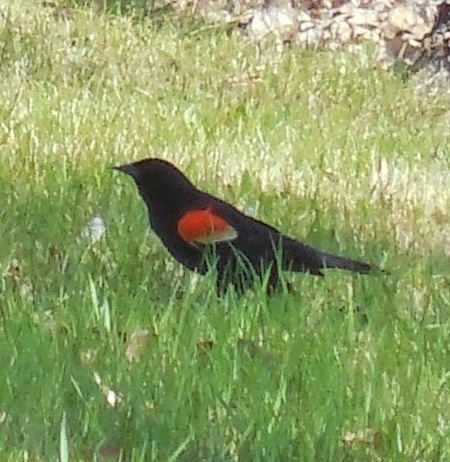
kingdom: Animalia
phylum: Chordata
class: Aves
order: Passeriformes
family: Icteridae
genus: Agelaius
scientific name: Agelaius phoeniceus
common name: Red-winged blackbird
